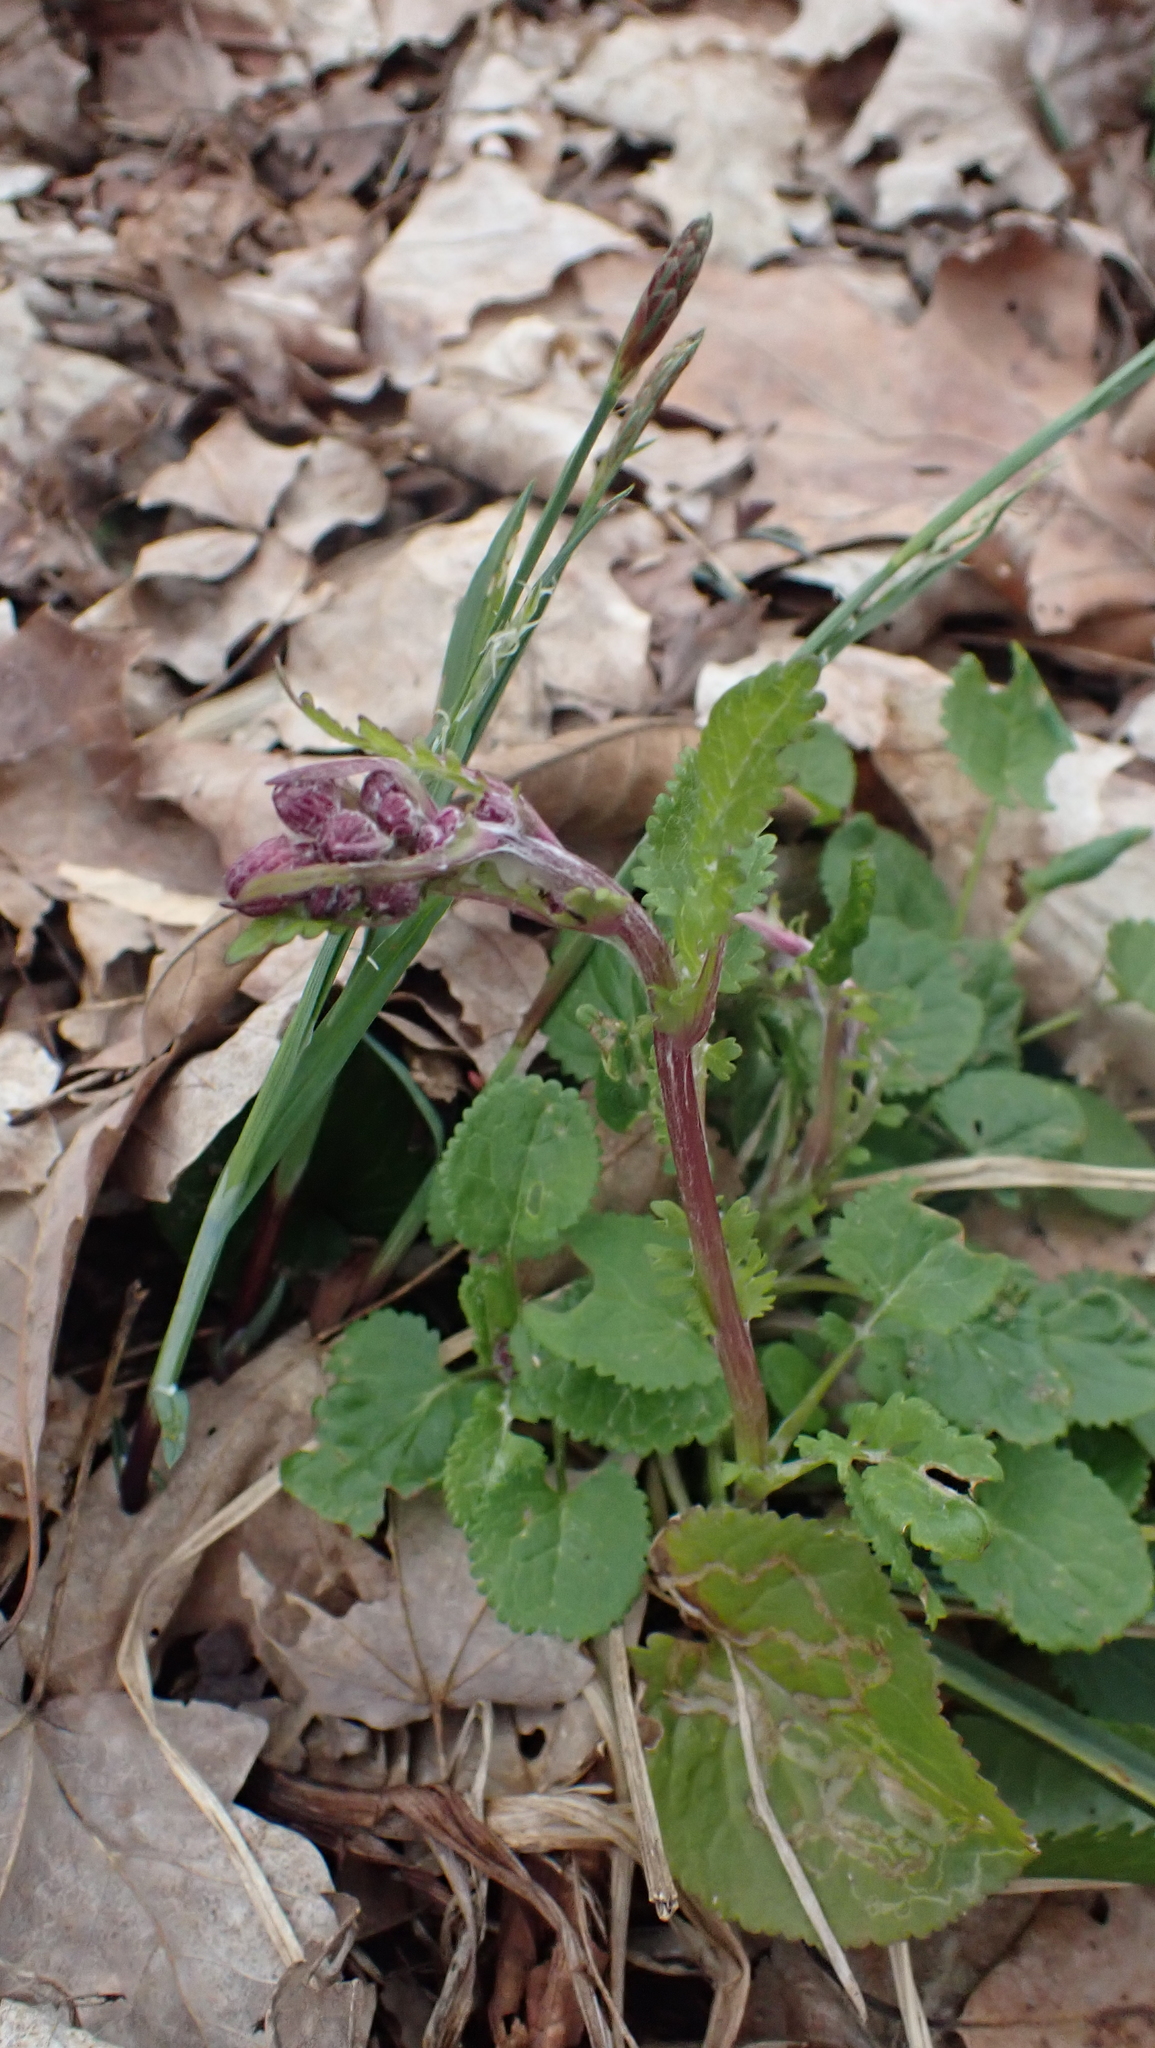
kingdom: Plantae
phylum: Tracheophyta
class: Magnoliopsida
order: Asterales
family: Asteraceae
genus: Packera
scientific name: Packera aurea
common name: Golden groundsel
